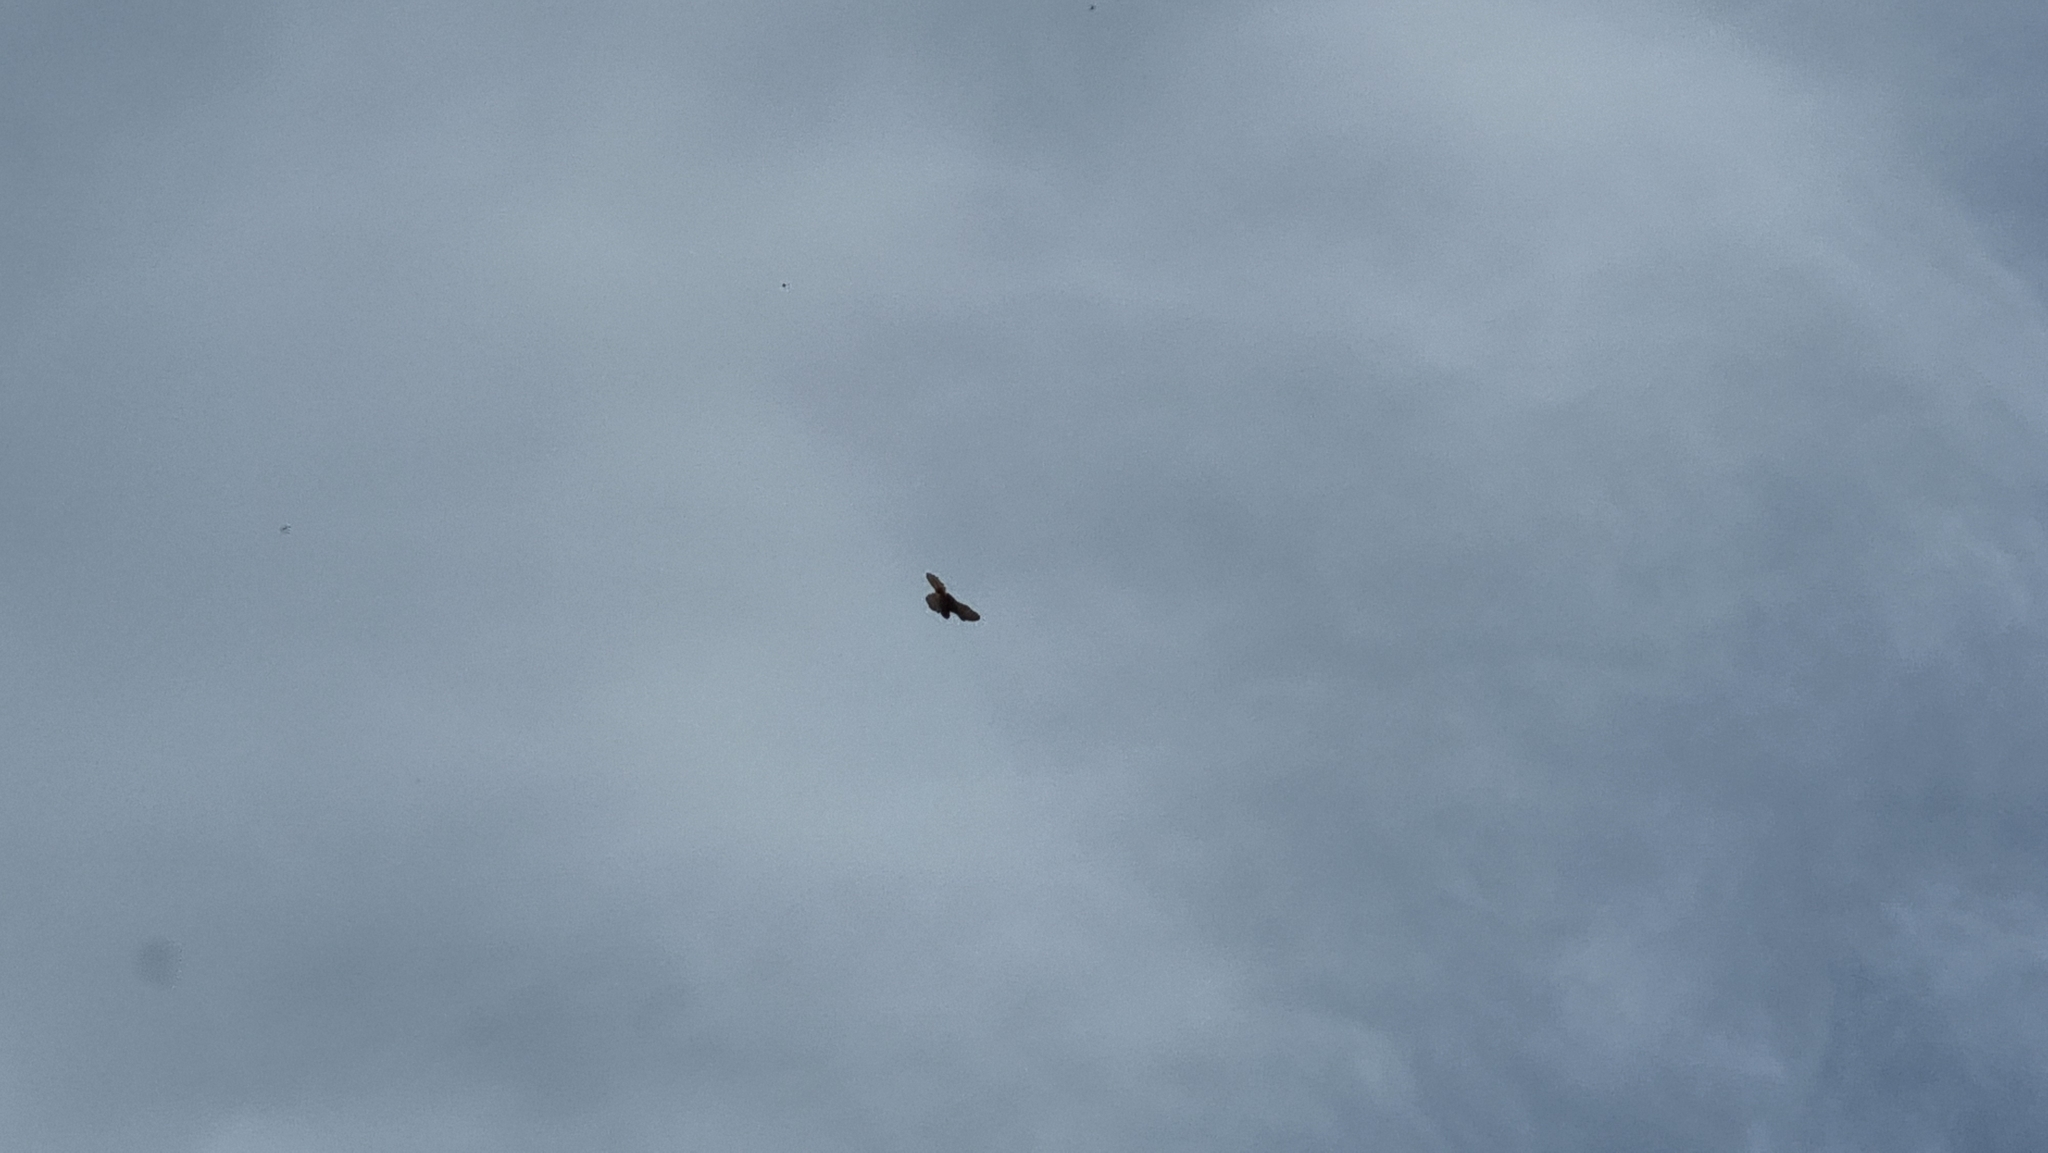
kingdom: Animalia
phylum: Chordata
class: Aves
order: Falconiformes
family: Falconidae
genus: Falco
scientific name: Falco tinnunculus
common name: Common kestrel
